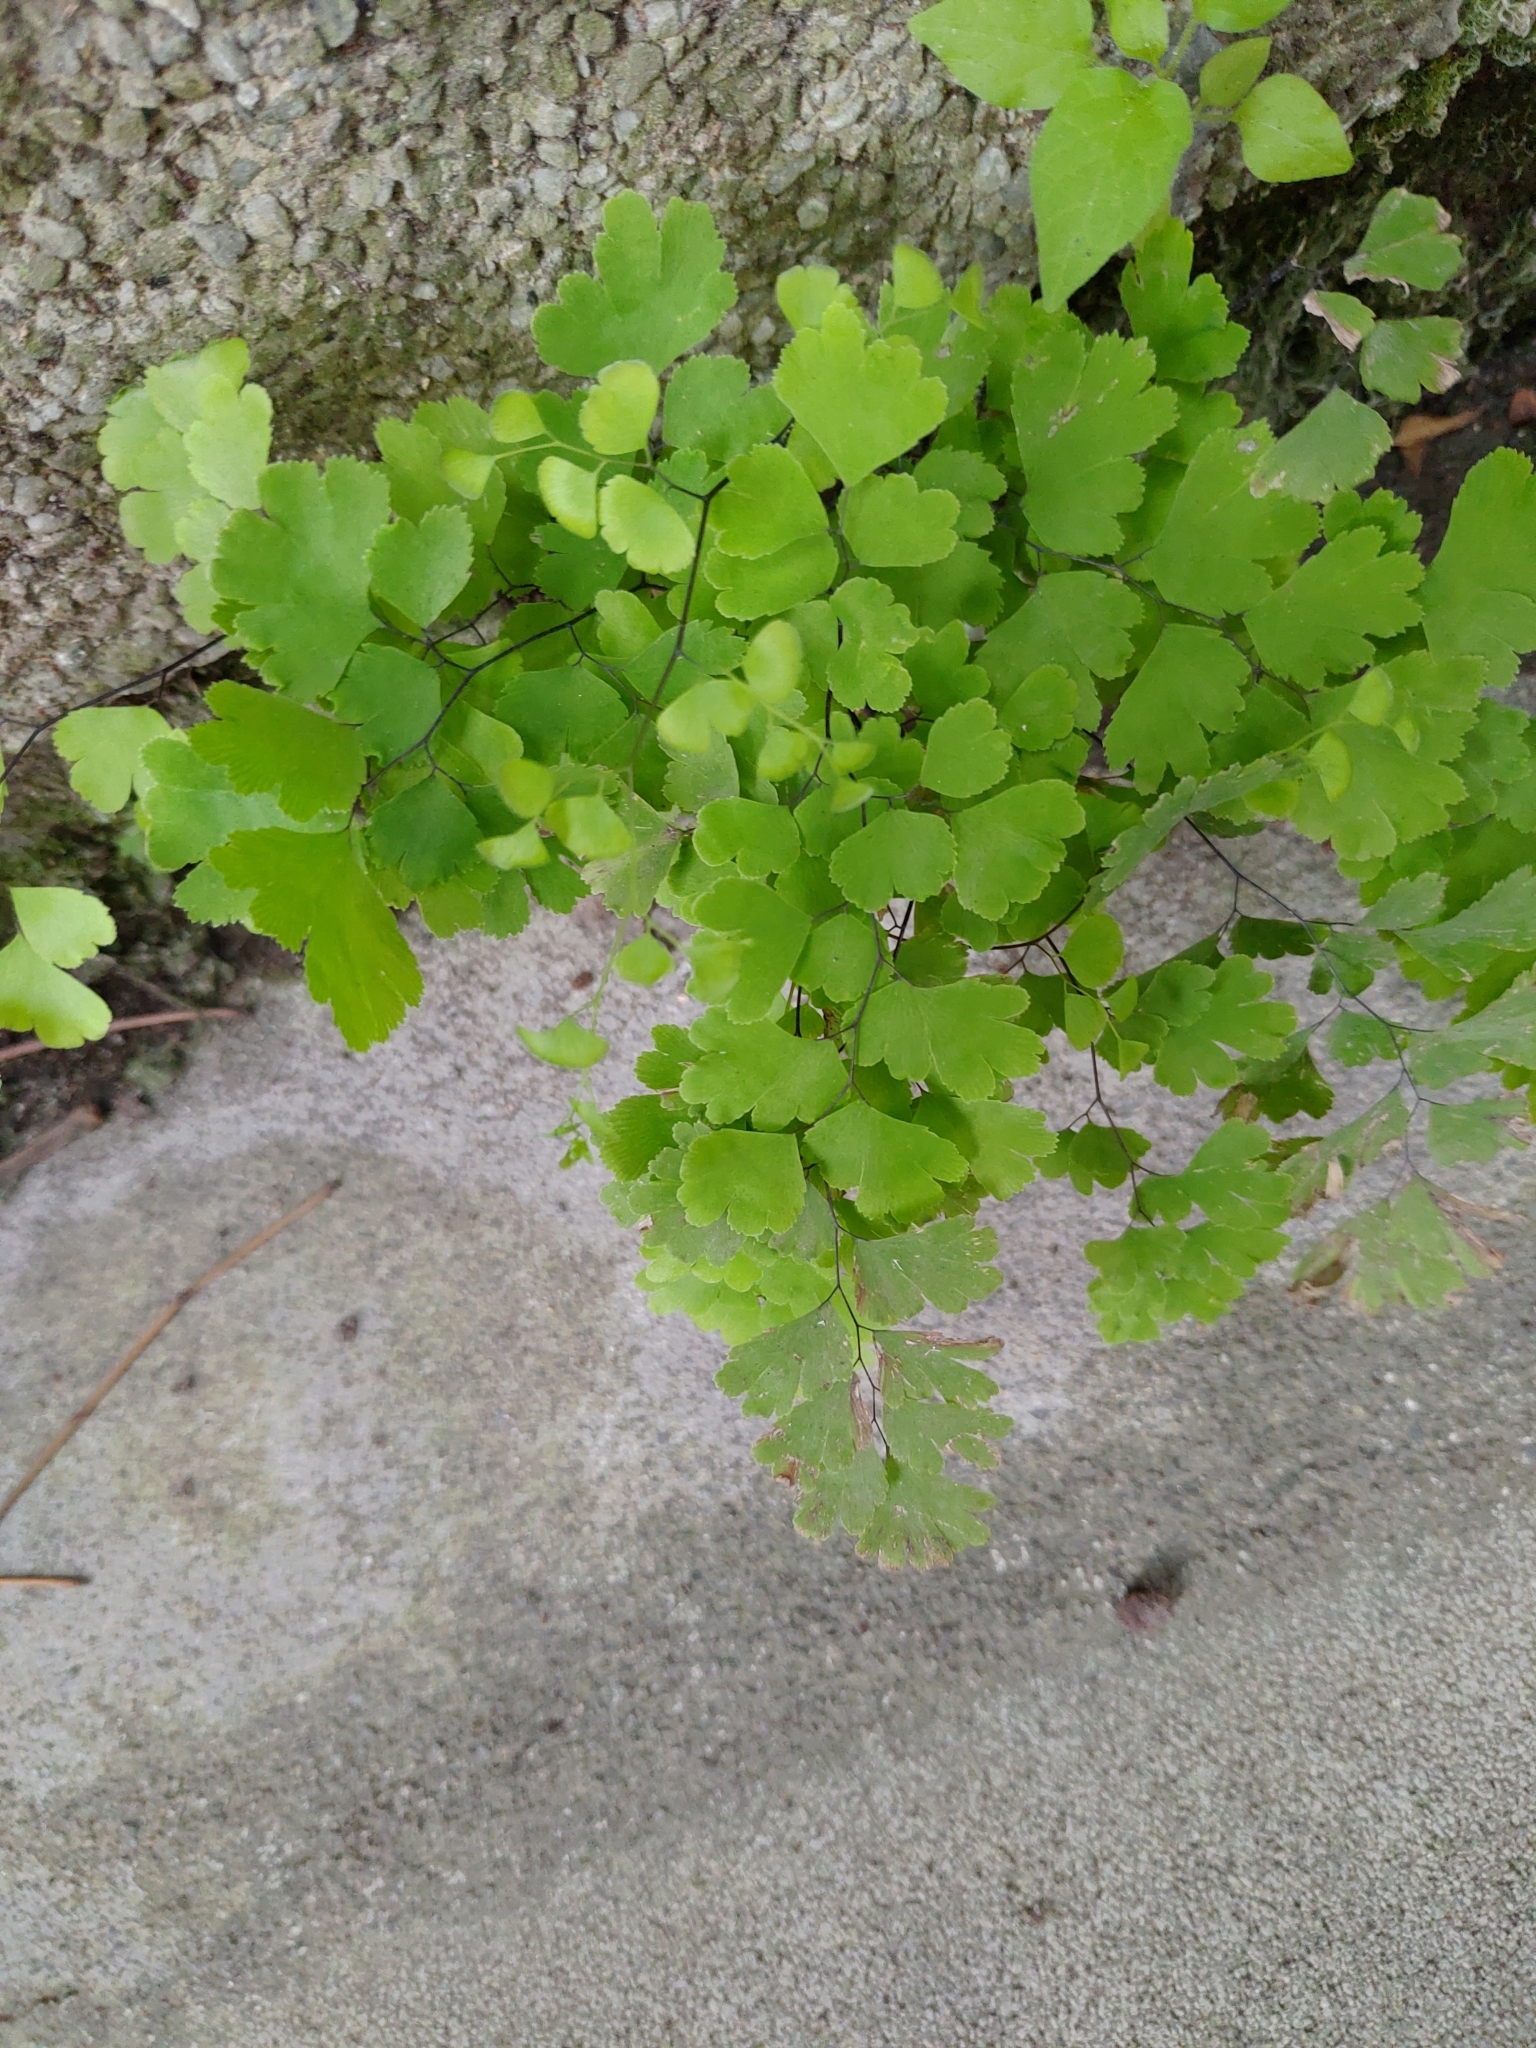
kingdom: Plantae
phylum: Tracheophyta
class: Polypodiopsida
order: Polypodiales
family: Pteridaceae
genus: Adiantum
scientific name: Adiantum capillus-veneris
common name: Maidenhair fern
